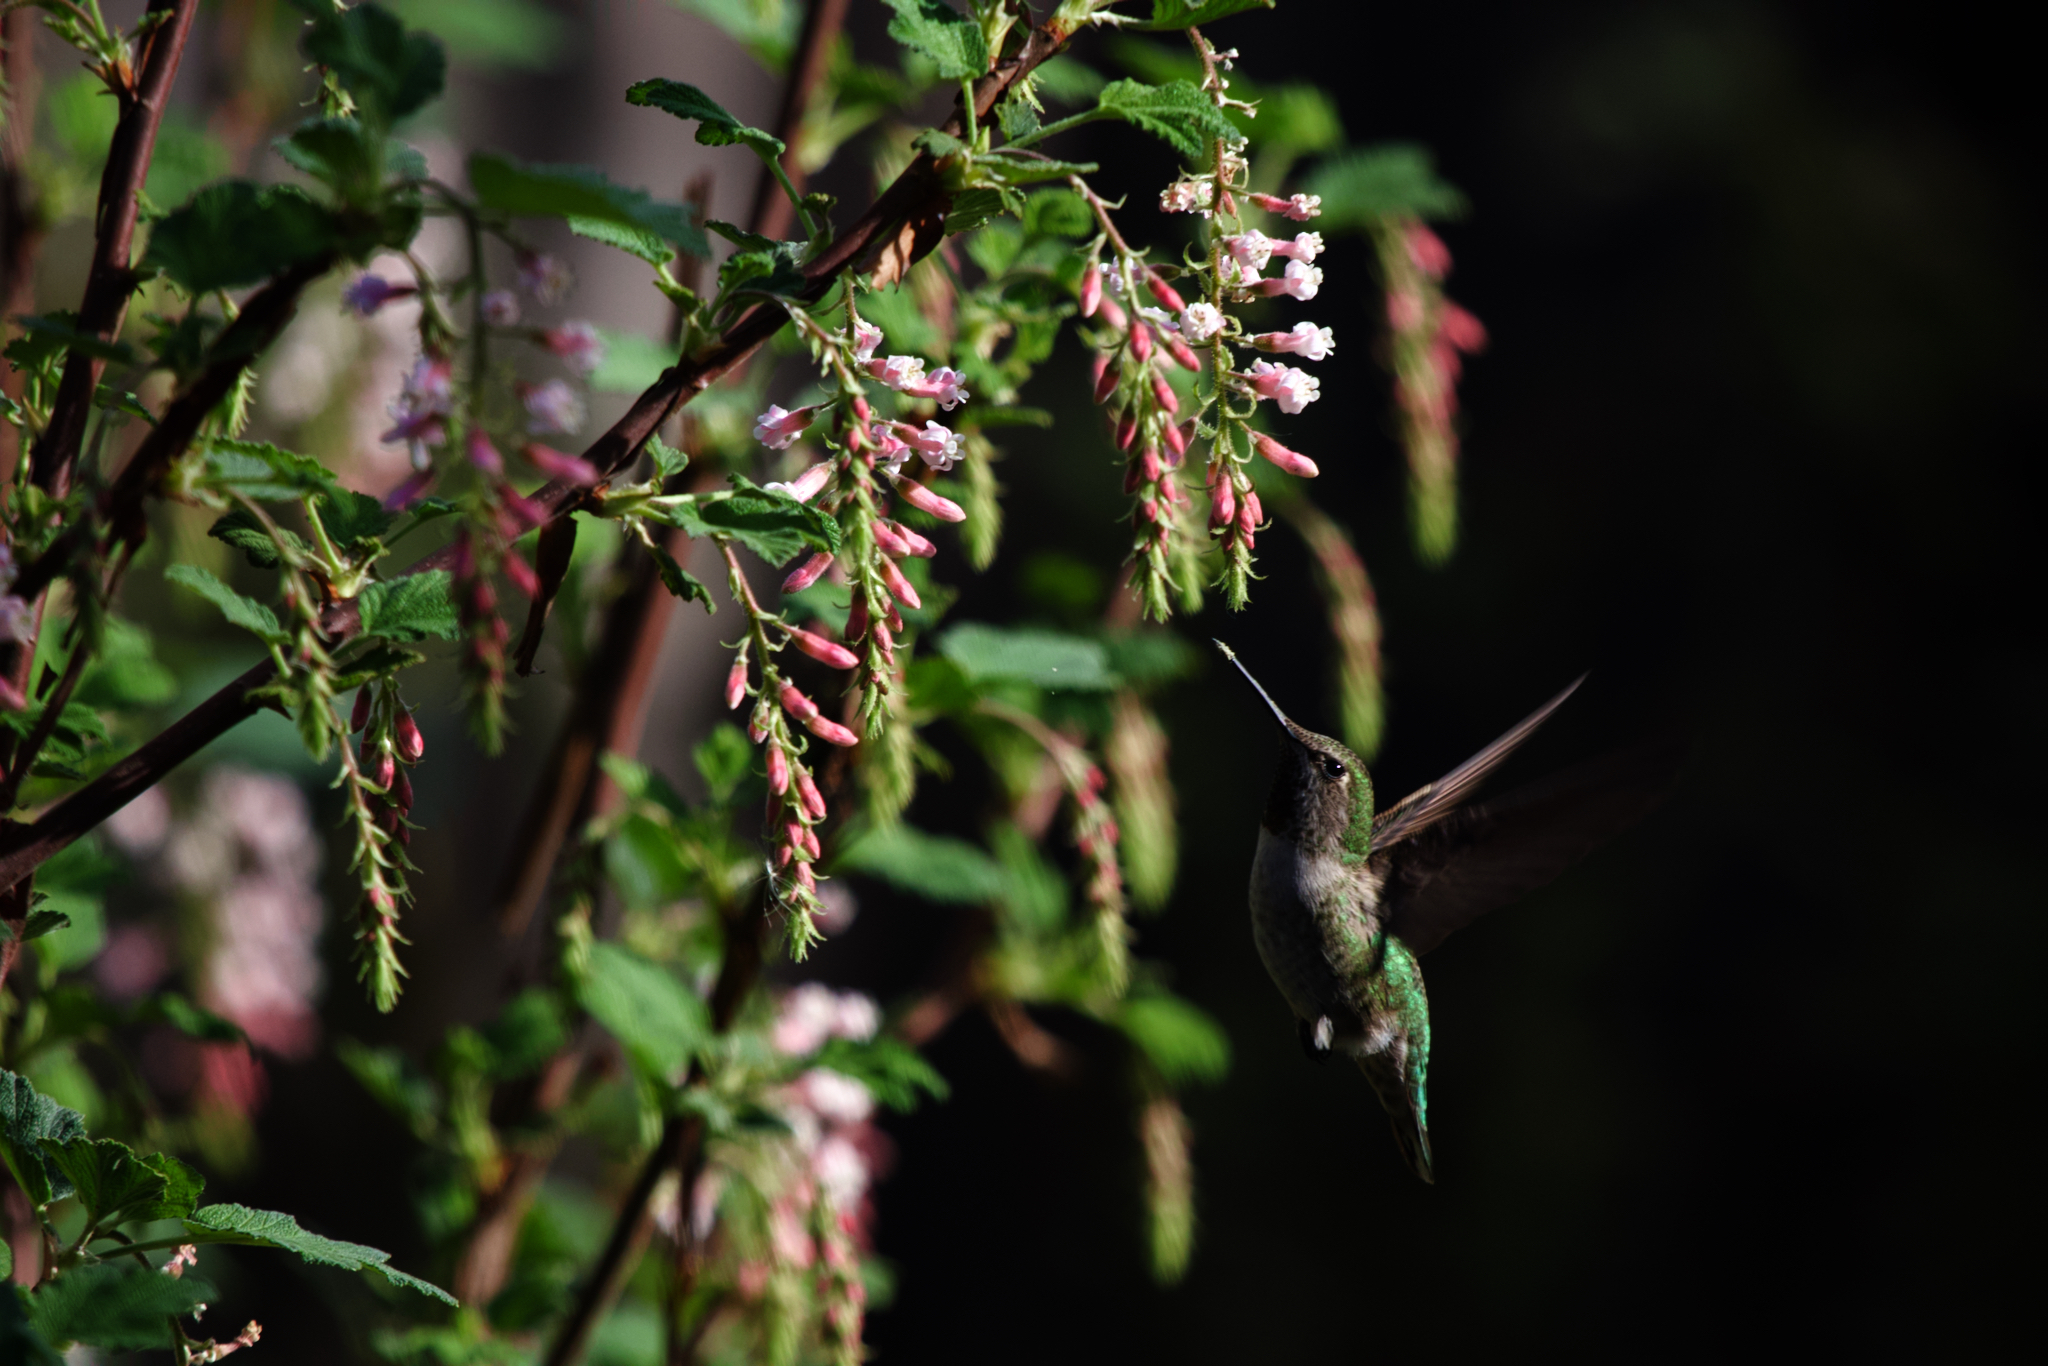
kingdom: Animalia
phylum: Chordata
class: Aves
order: Apodiformes
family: Trochilidae
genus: Calypte
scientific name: Calypte anna
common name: Anna's hummingbird
